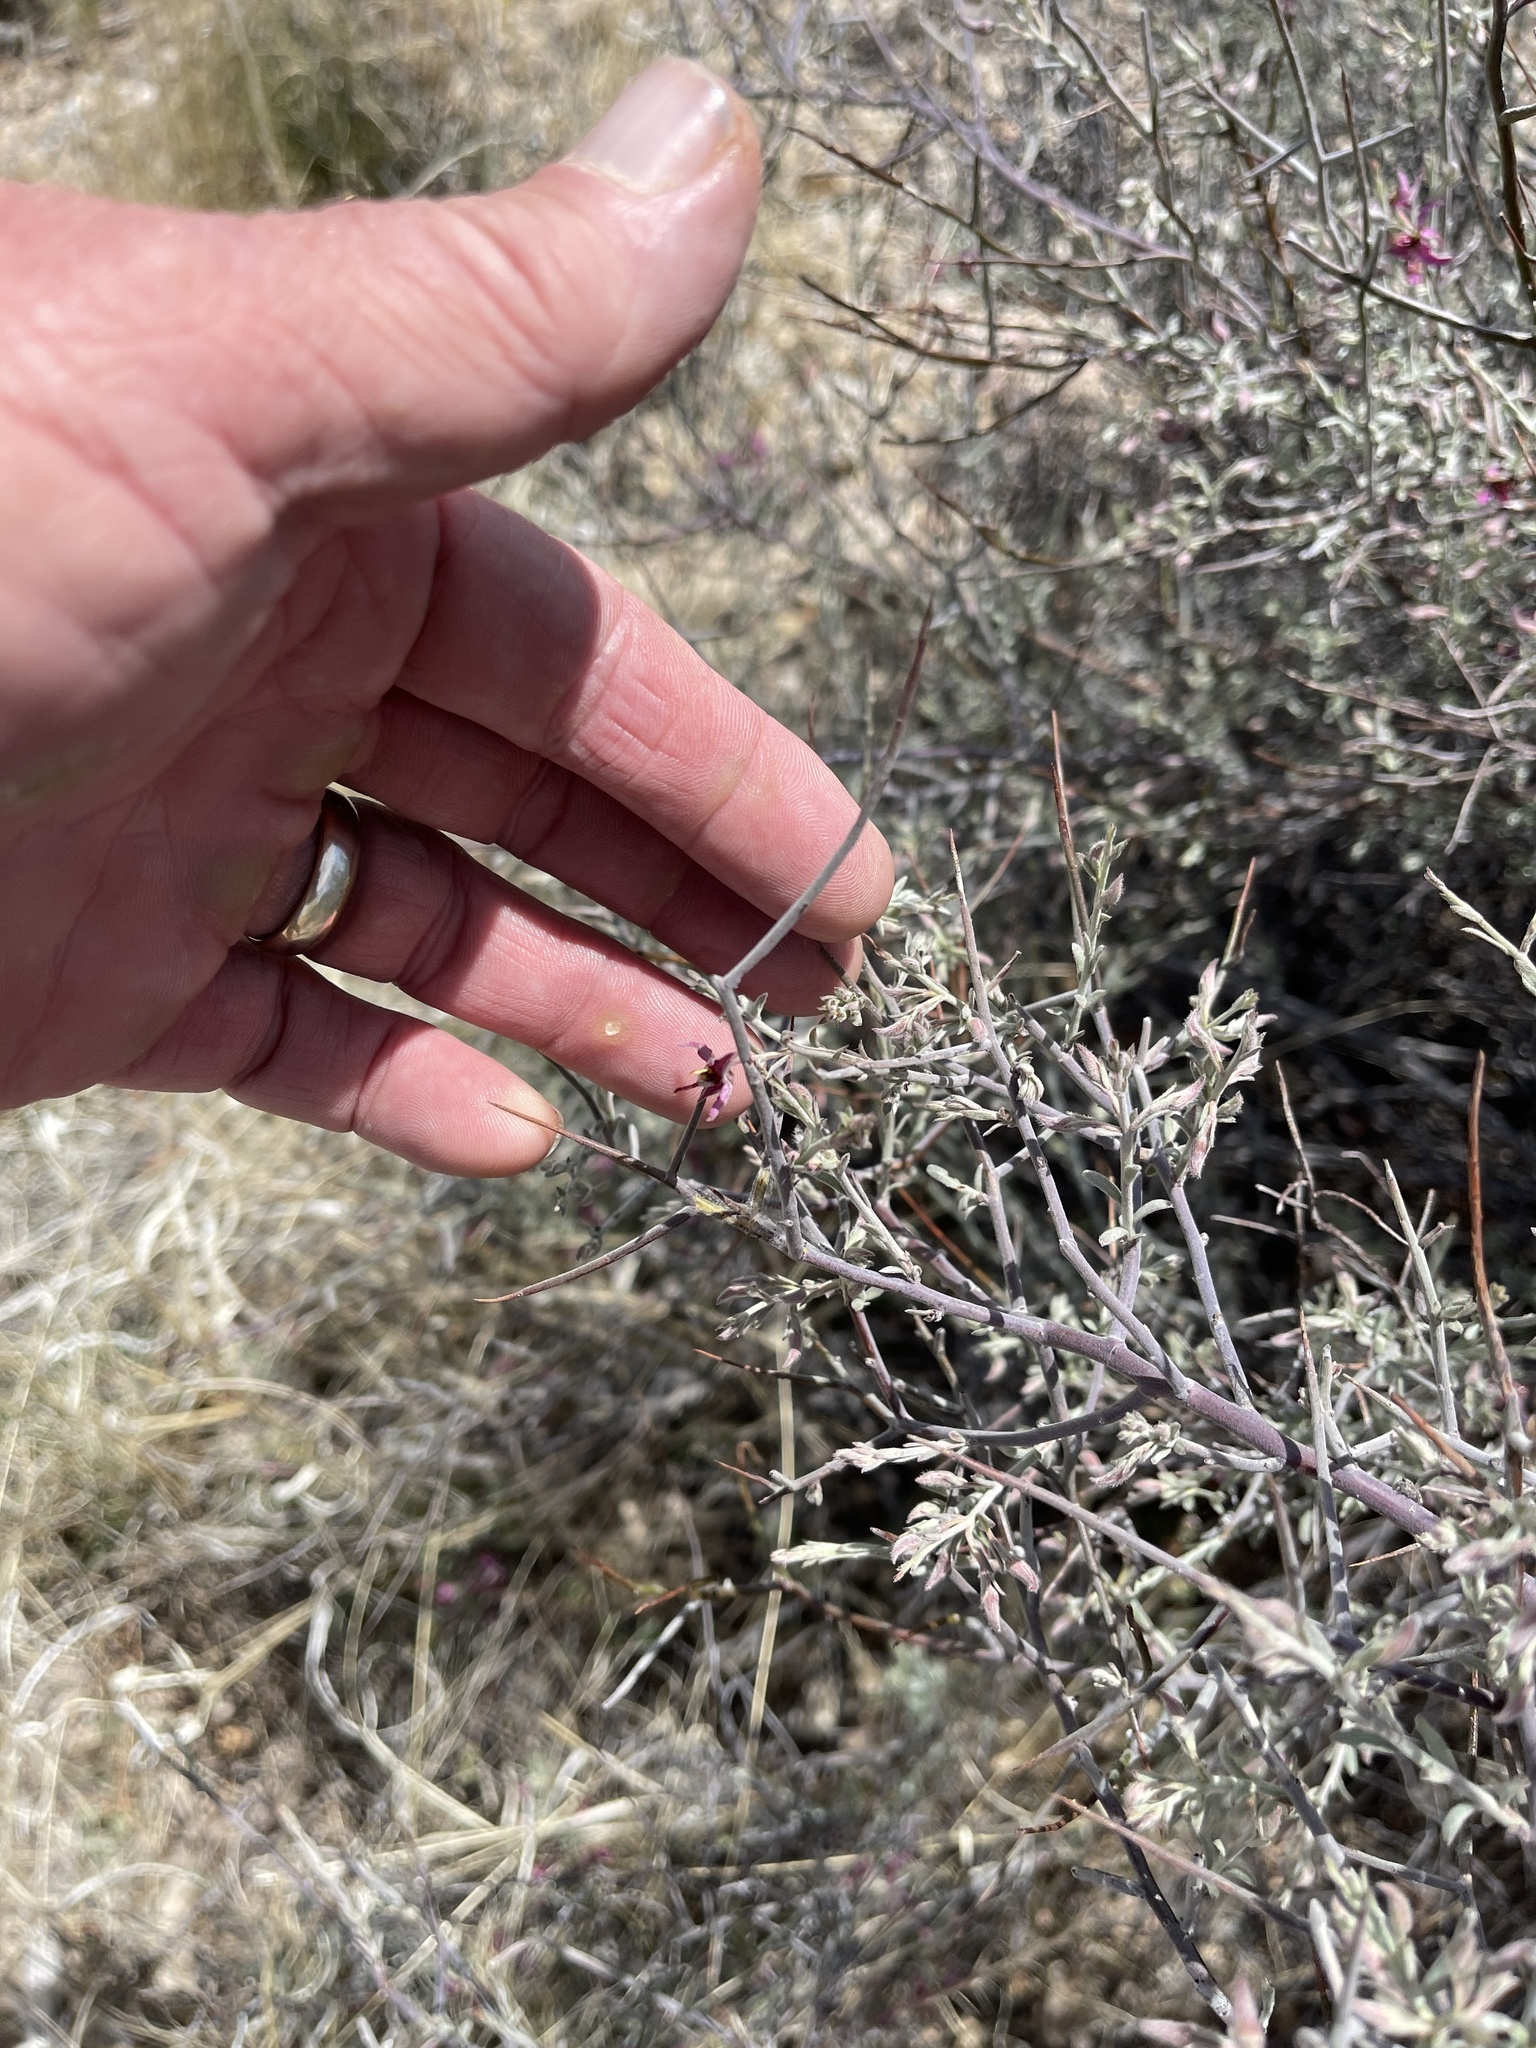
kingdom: Plantae
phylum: Tracheophyta
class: Magnoliopsida
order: Zygophyllales
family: Krameriaceae
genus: Krameria
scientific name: Krameria bicolor
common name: White ratany
